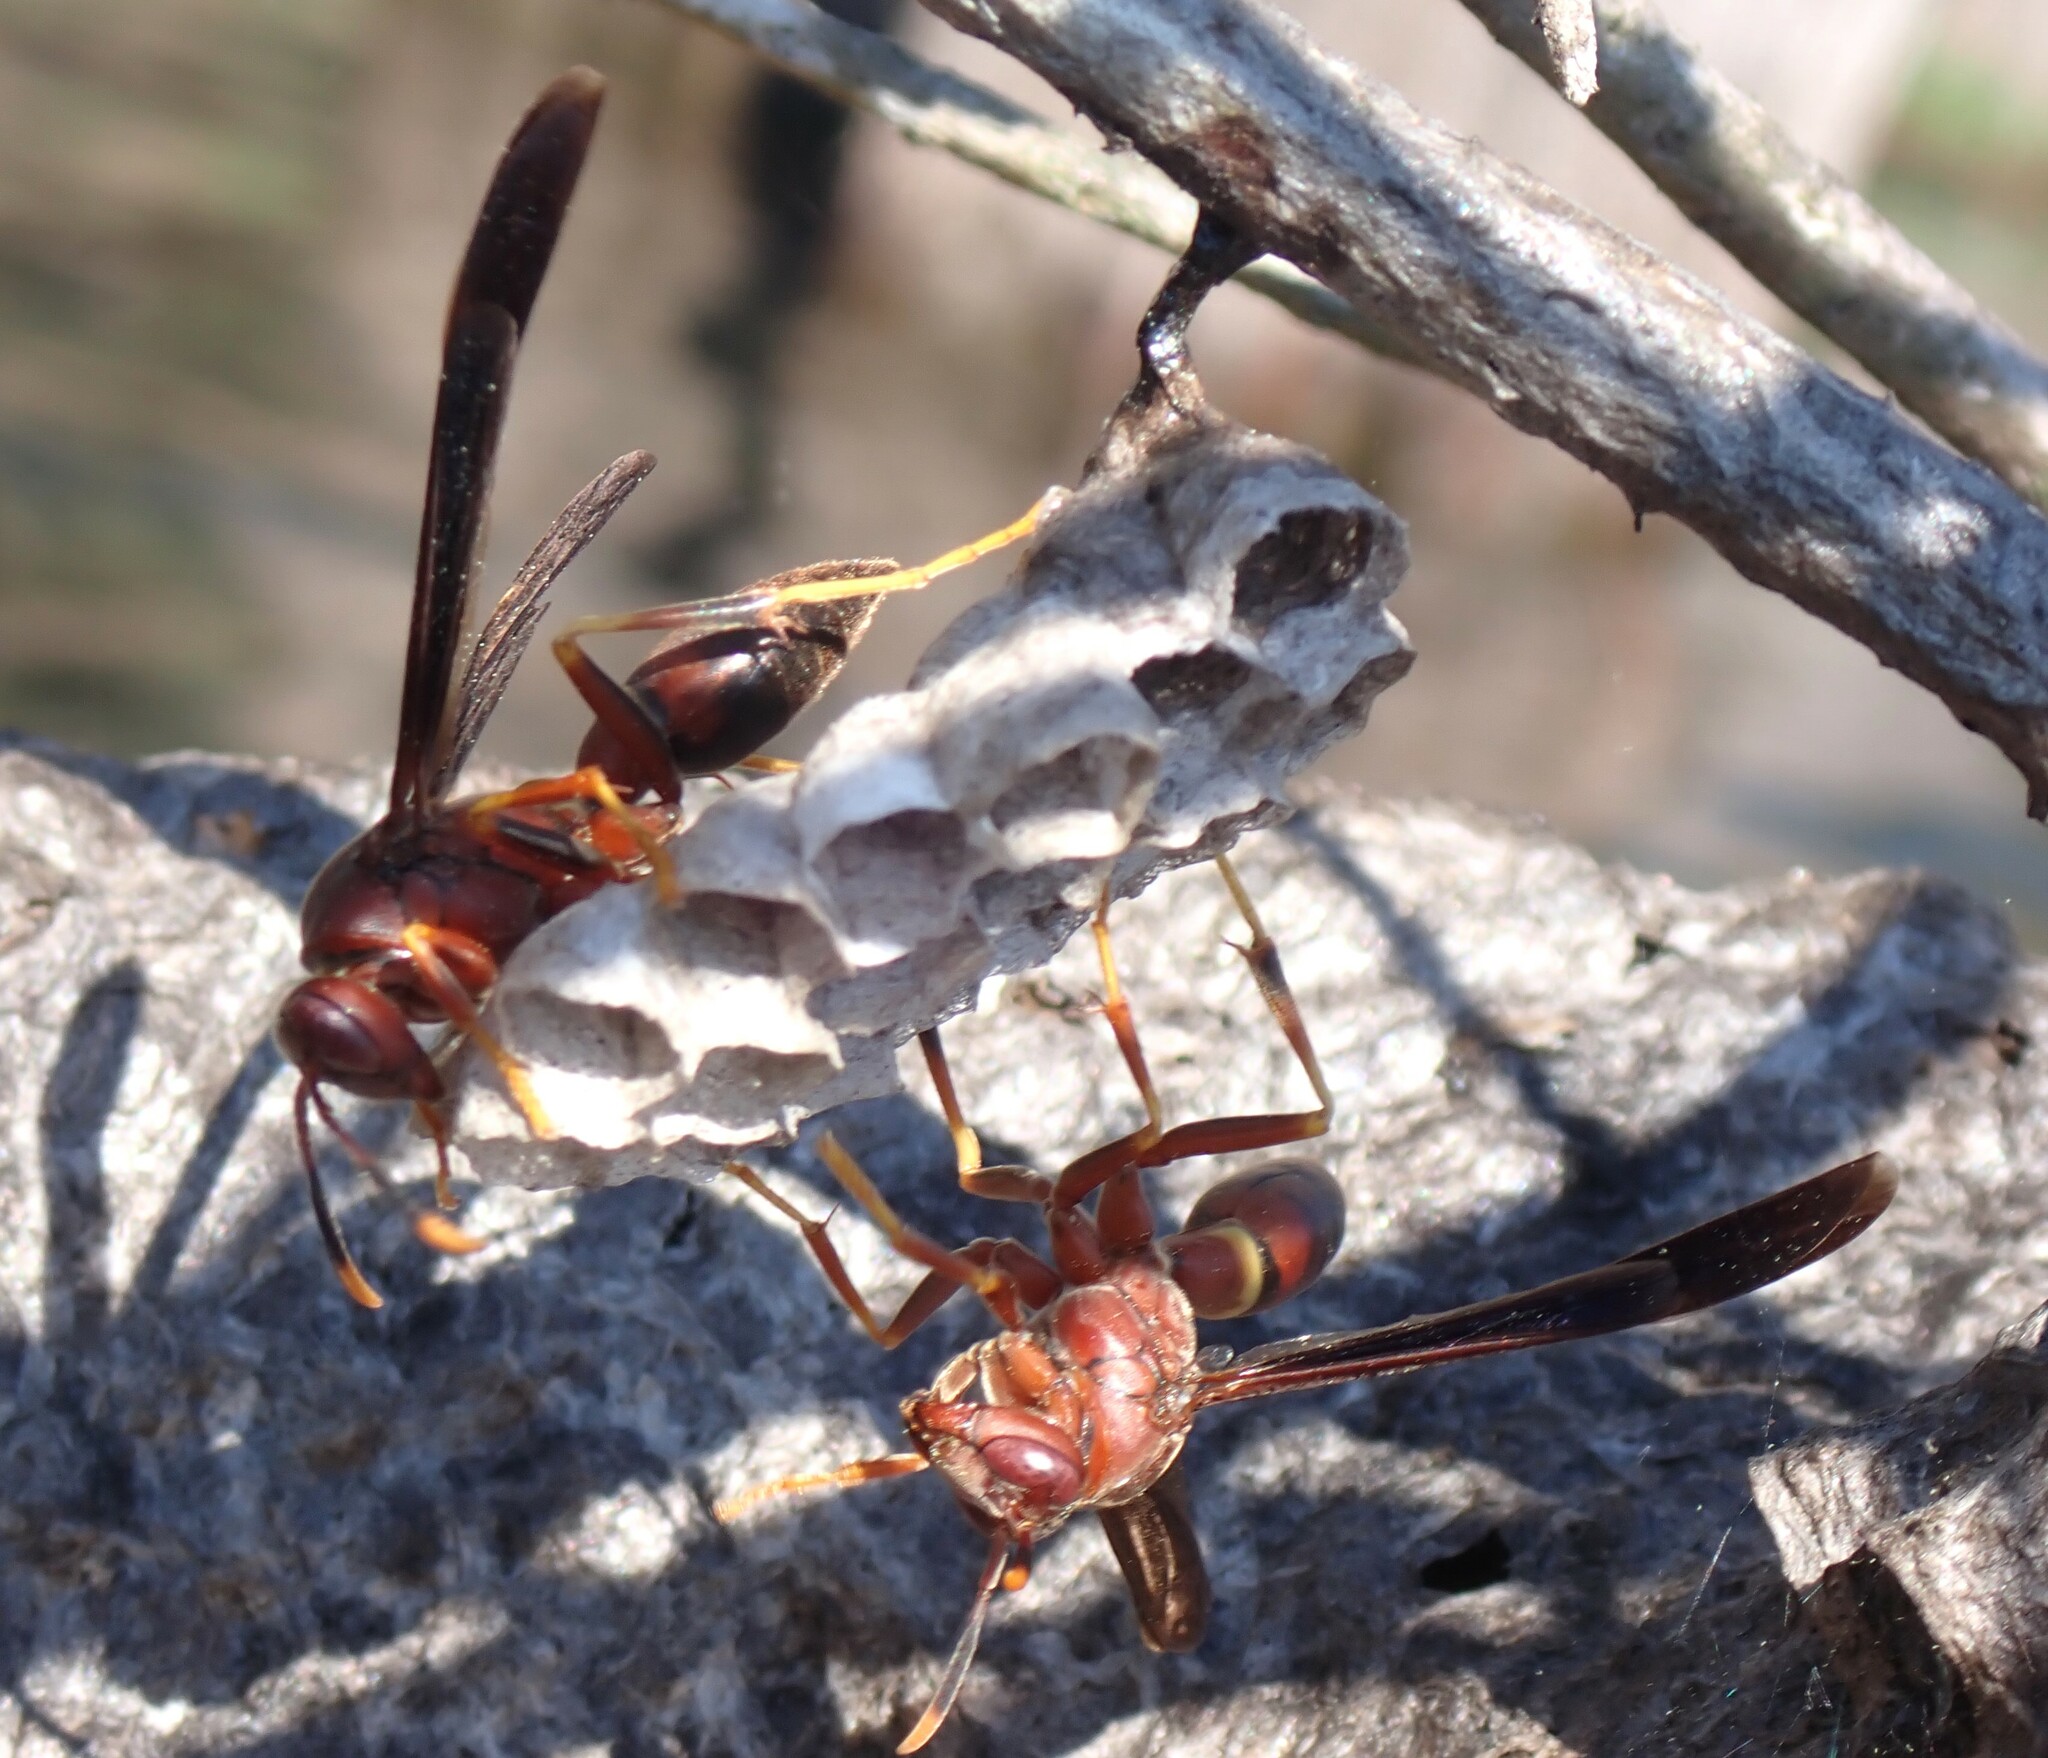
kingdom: Animalia
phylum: Arthropoda
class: Insecta
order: Hymenoptera
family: Eumenidae
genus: Polistes
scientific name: Polistes annularis
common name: Ringed paper wasp
